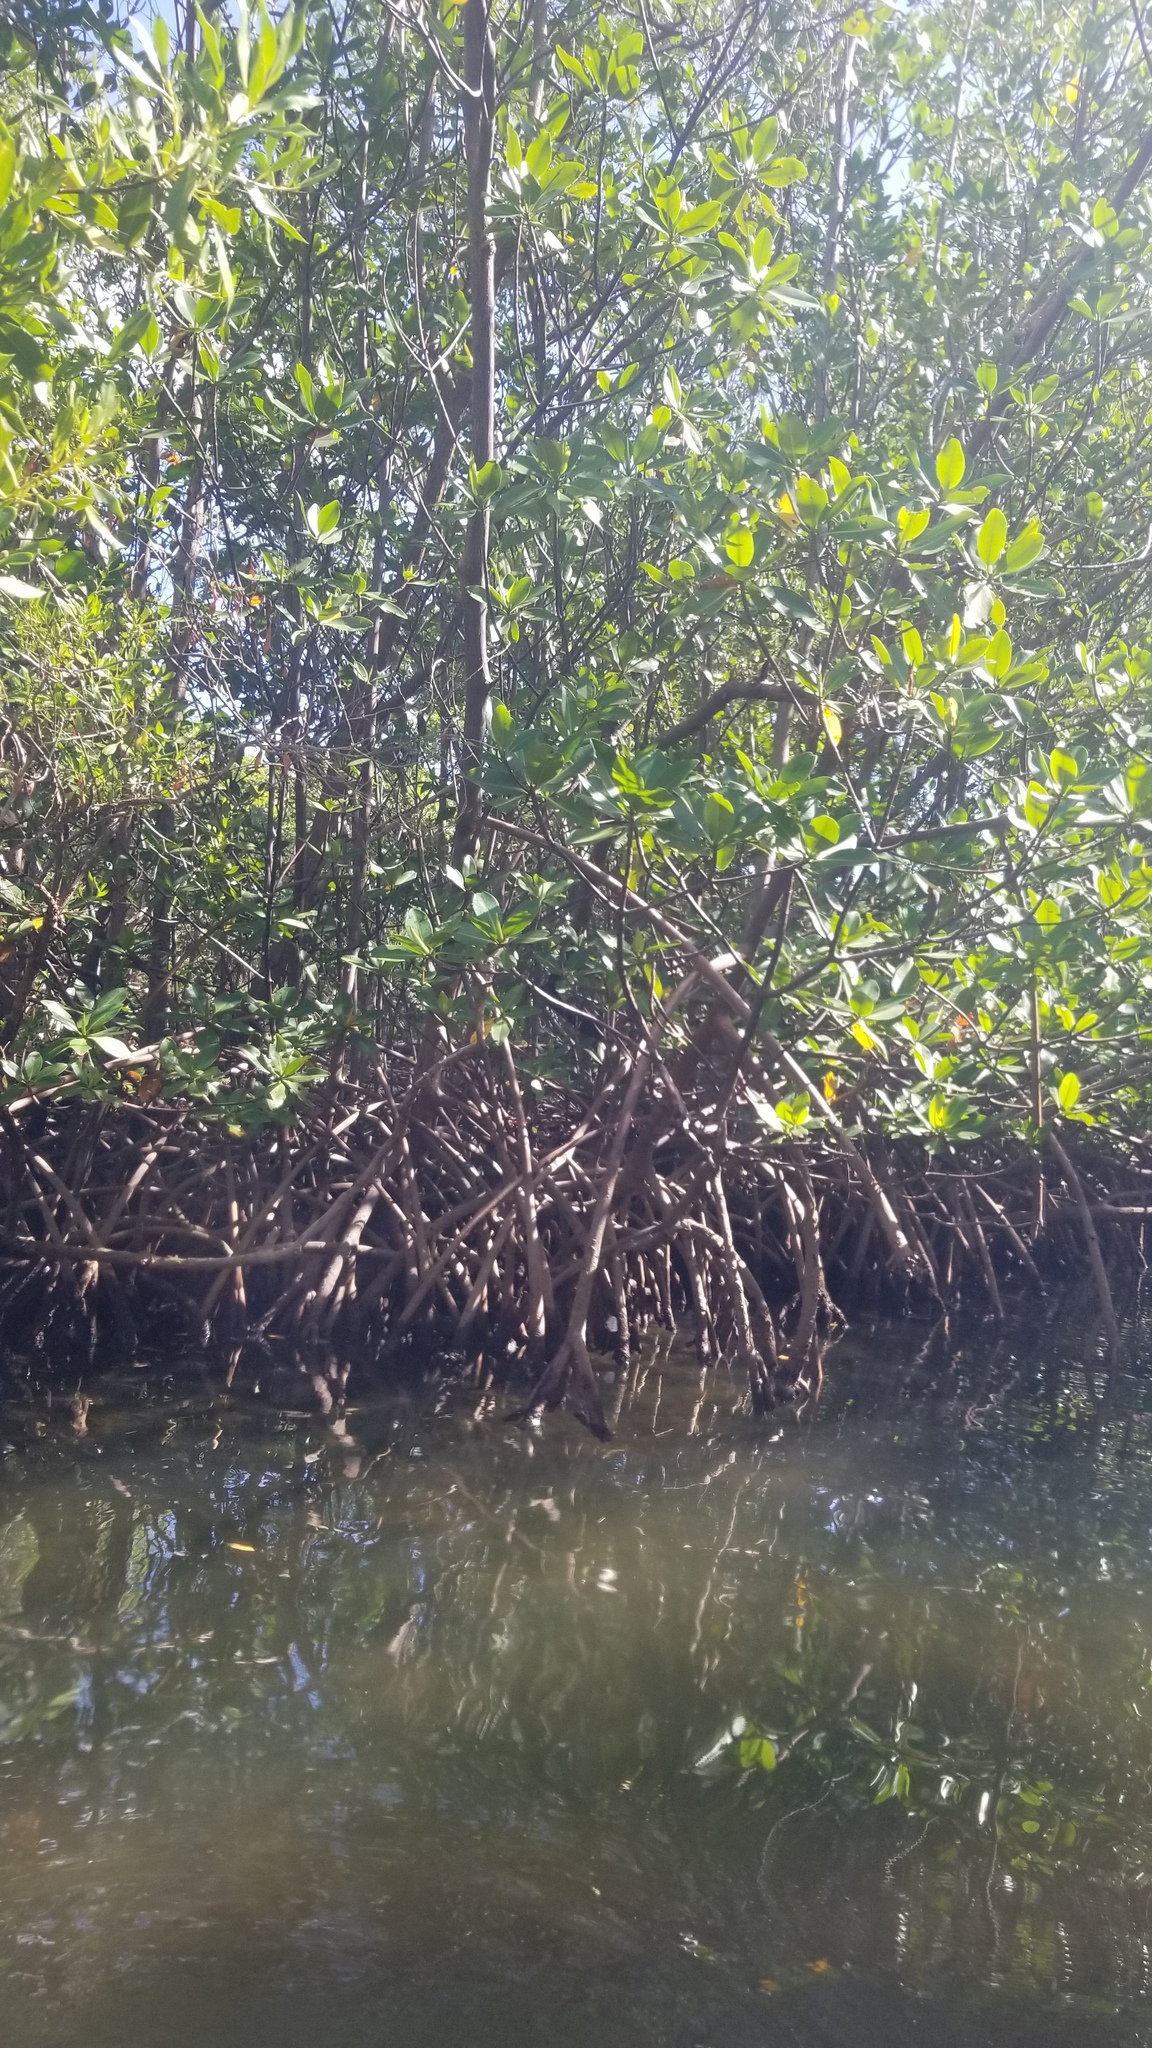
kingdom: Plantae
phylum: Tracheophyta
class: Magnoliopsida
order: Malpighiales
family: Rhizophoraceae
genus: Rhizophora
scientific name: Rhizophora mangle
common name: Red mangrove
